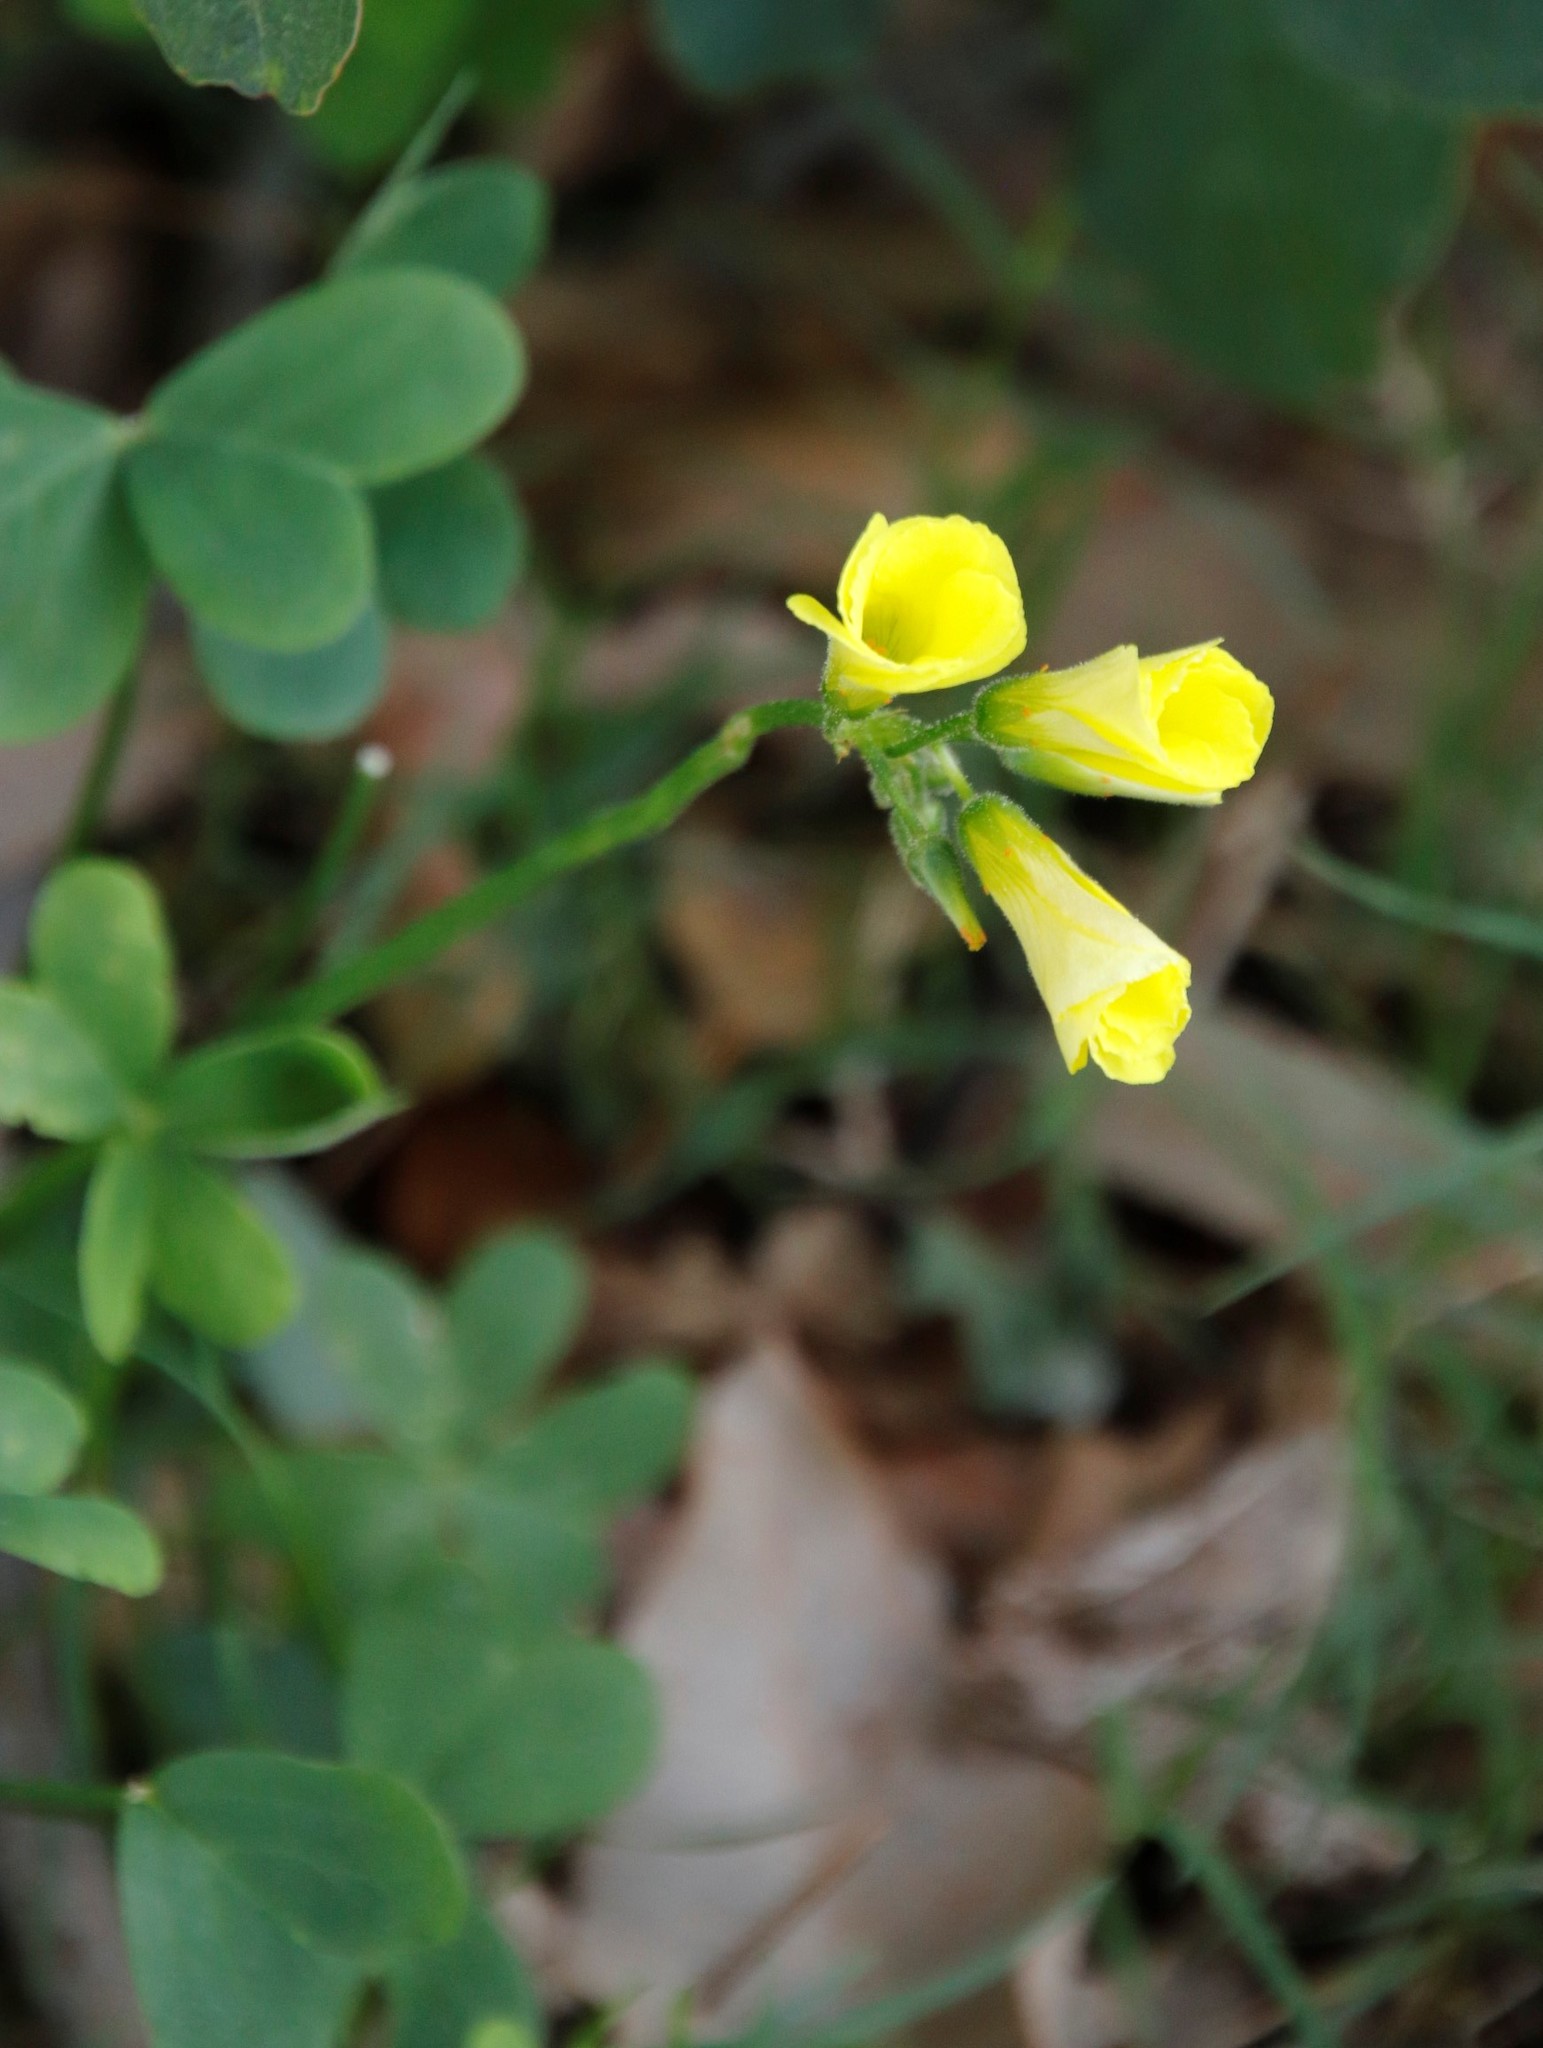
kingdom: Plantae
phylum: Tracheophyta
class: Magnoliopsida
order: Oxalidales
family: Oxalidaceae
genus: Oxalis
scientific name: Oxalis pes-caprae
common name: Bermuda-buttercup
